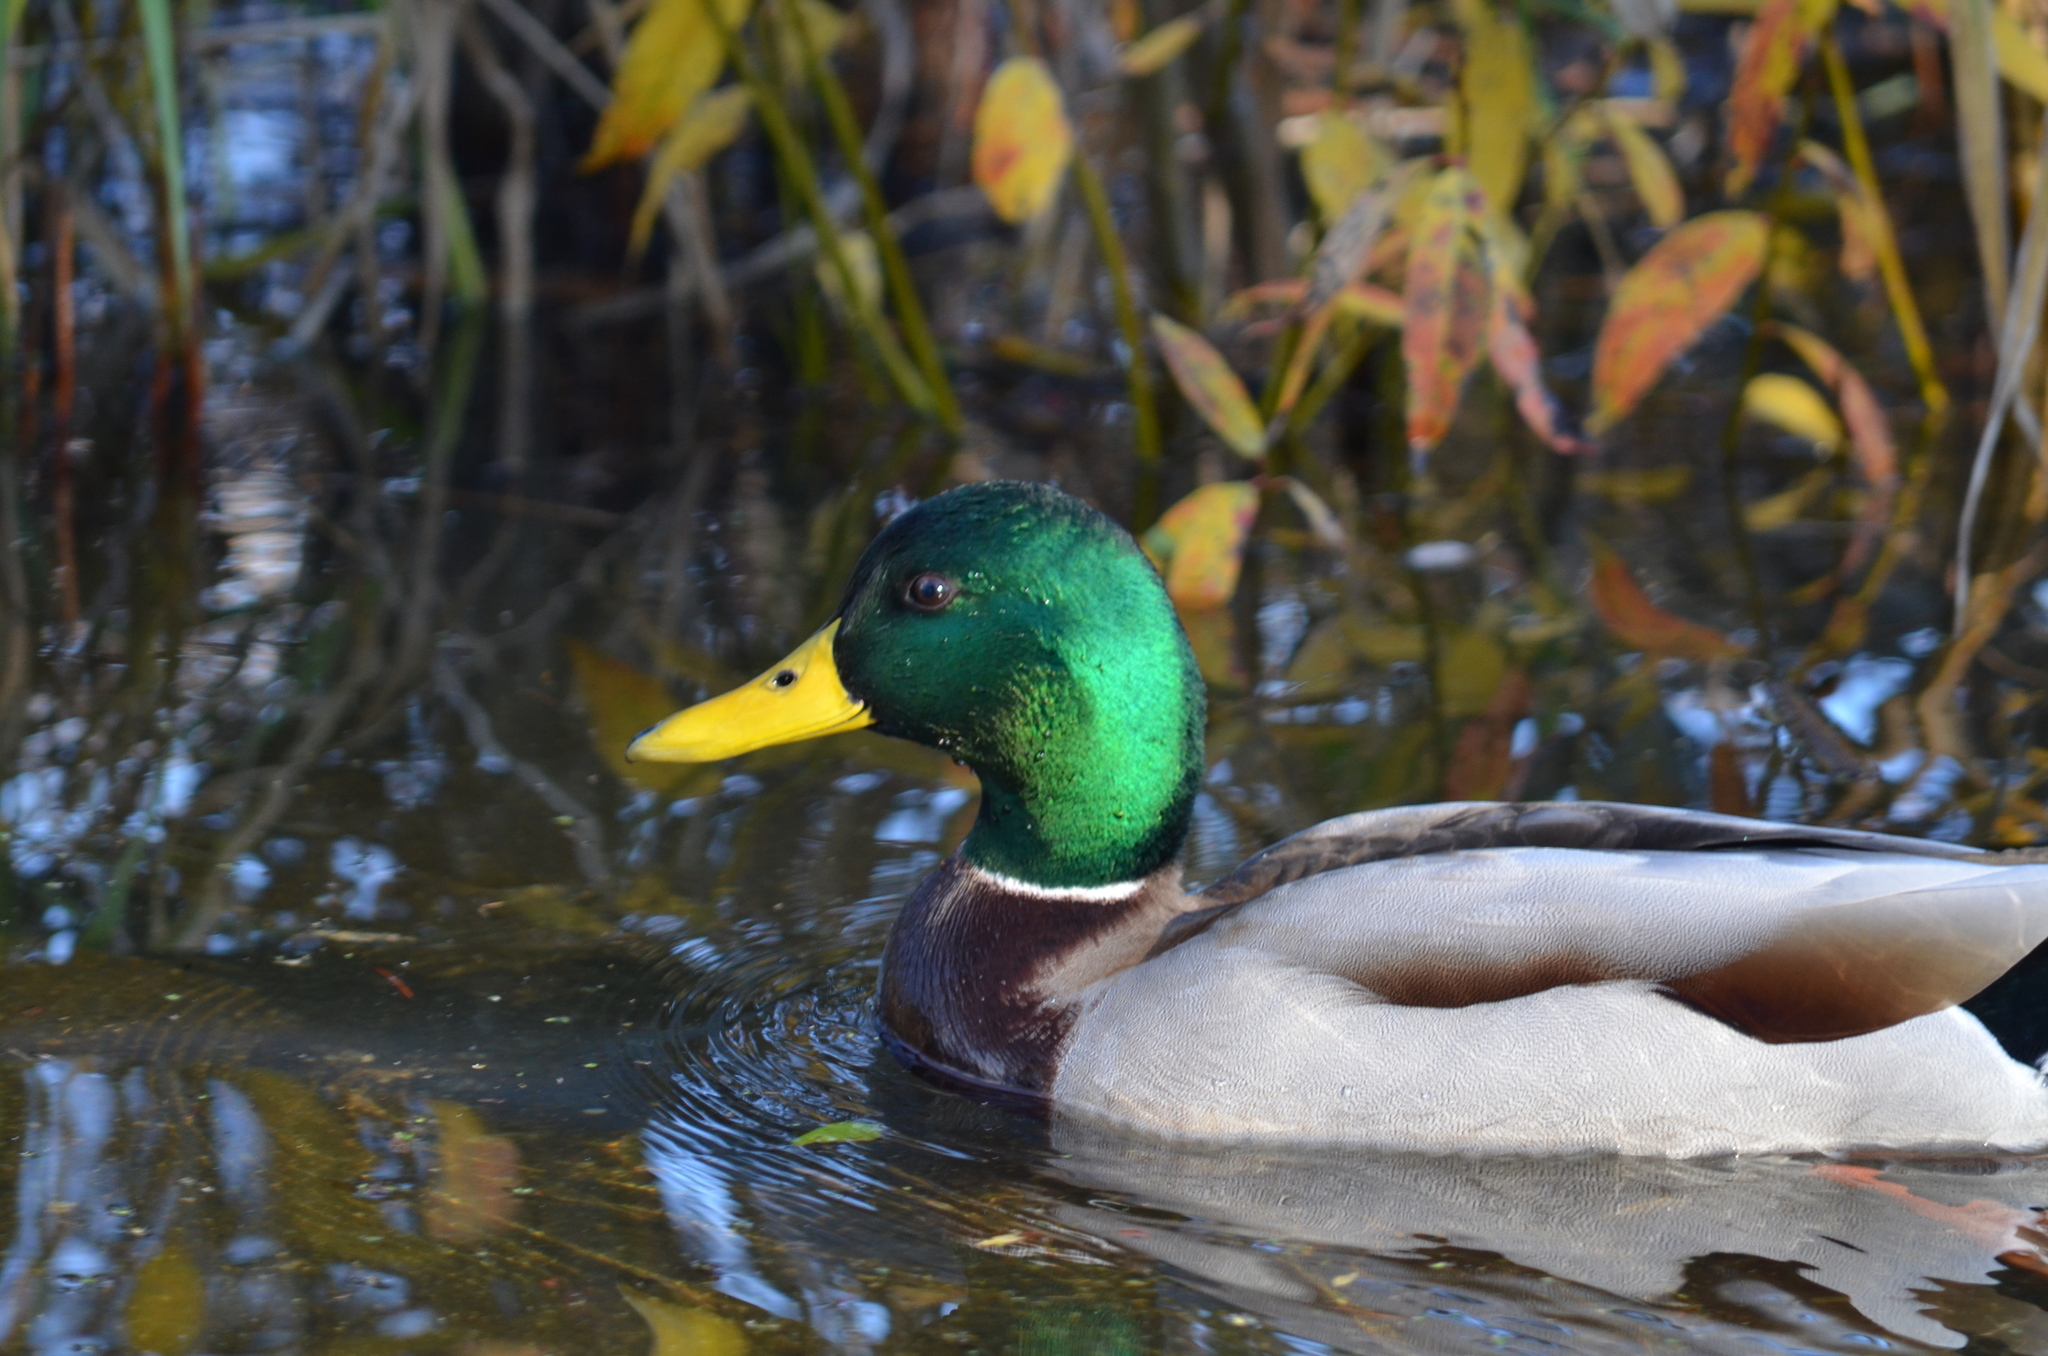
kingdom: Animalia
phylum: Chordata
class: Aves
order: Anseriformes
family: Anatidae
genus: Anas
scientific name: Anas platyrhynchos
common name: Mallard
